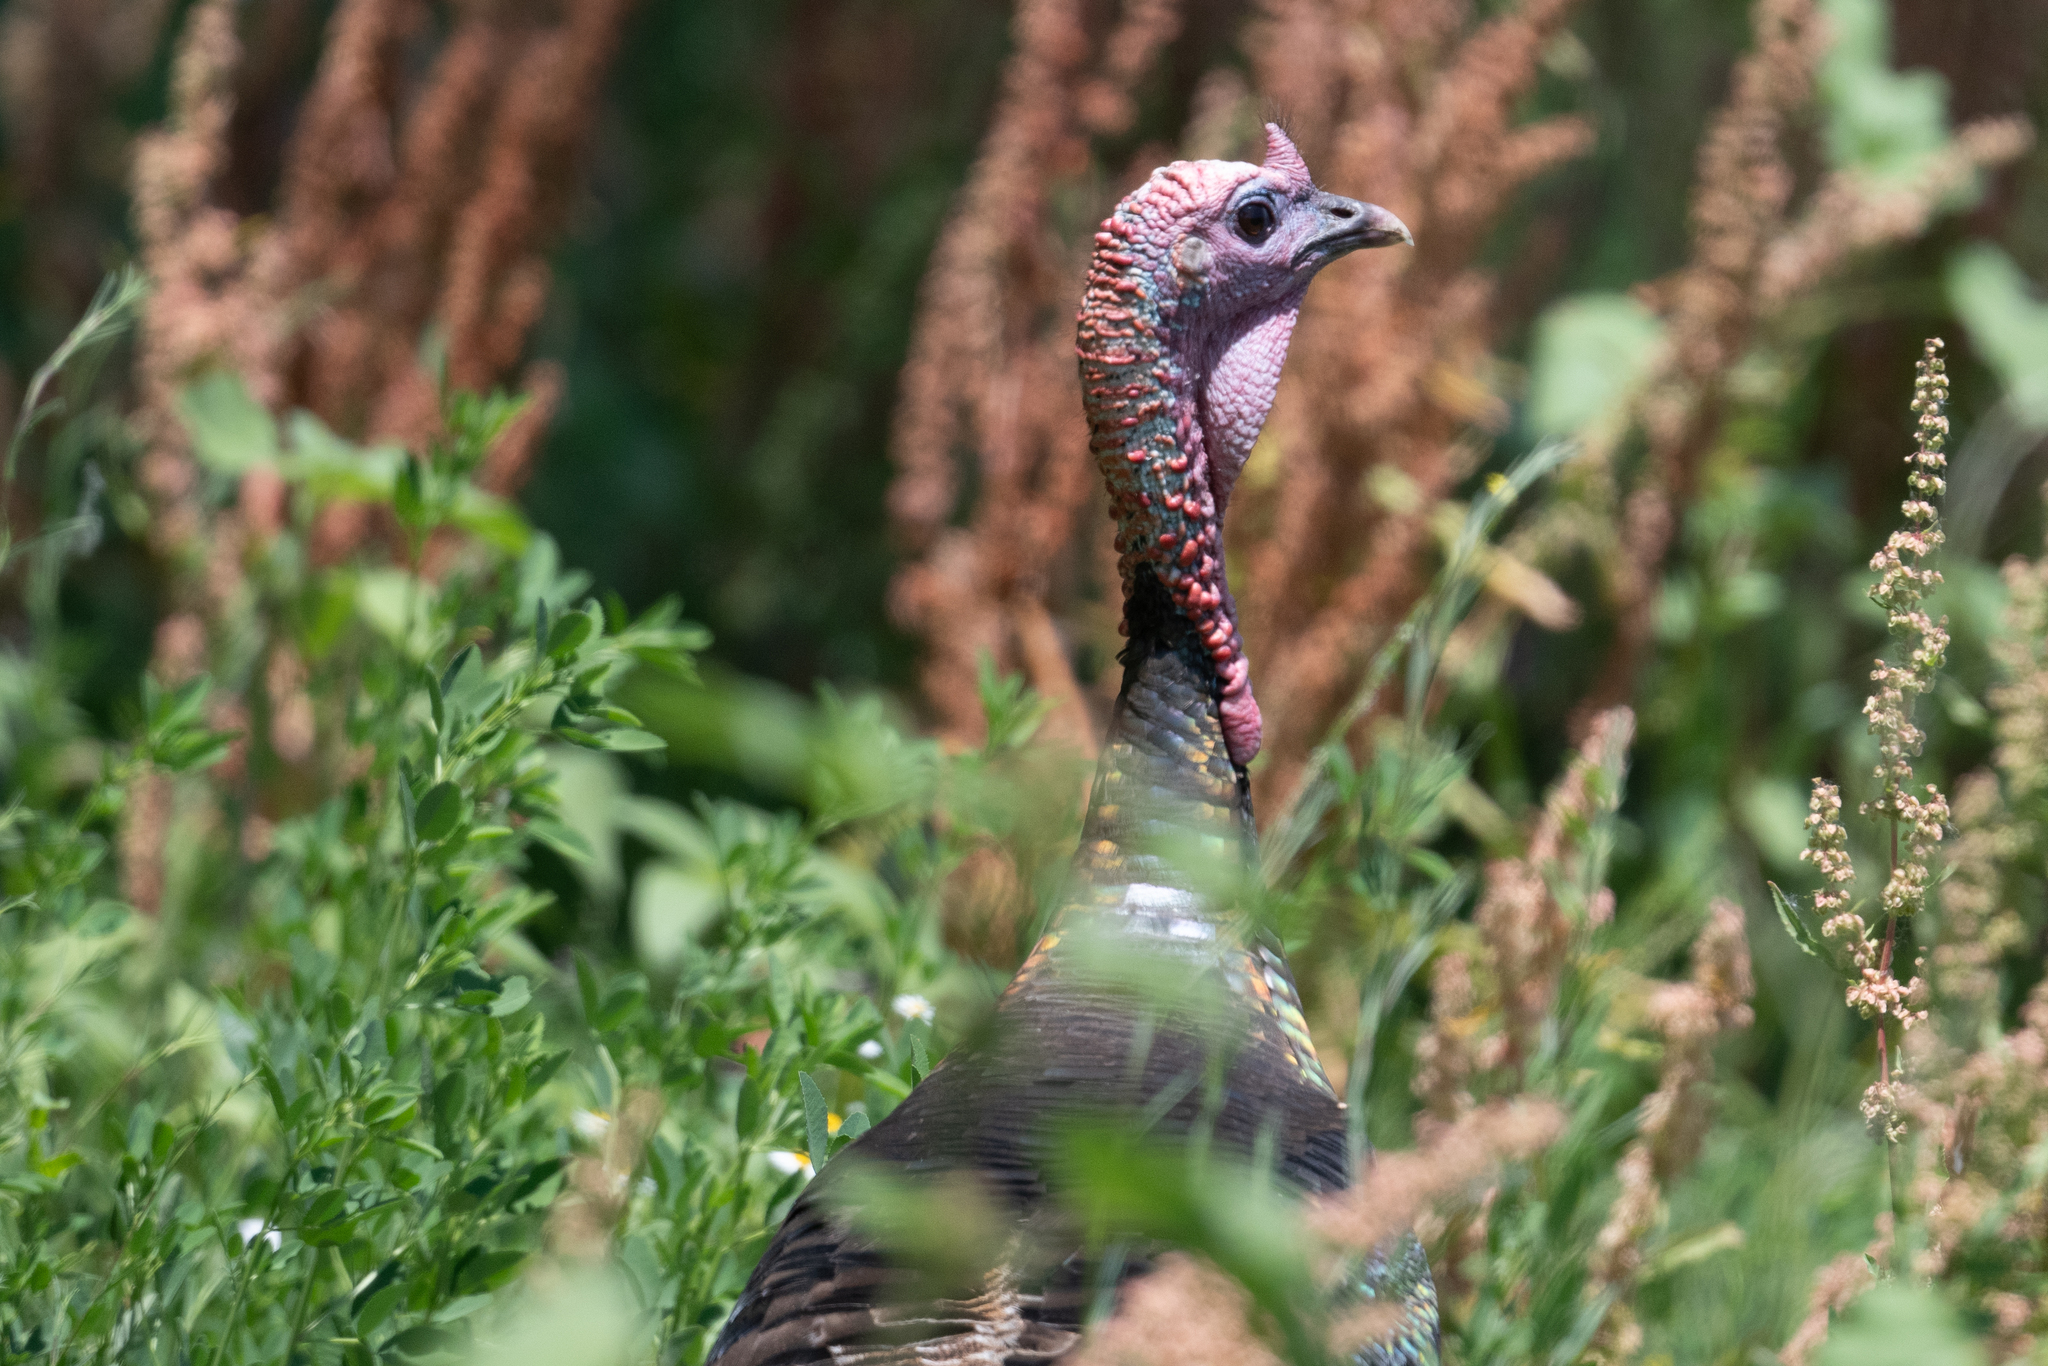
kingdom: Animalia
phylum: Chordata
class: Aves
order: Galliformes
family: Phasianidae
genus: Meleagris
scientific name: Meleagris gallopavo
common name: Wild turkey
